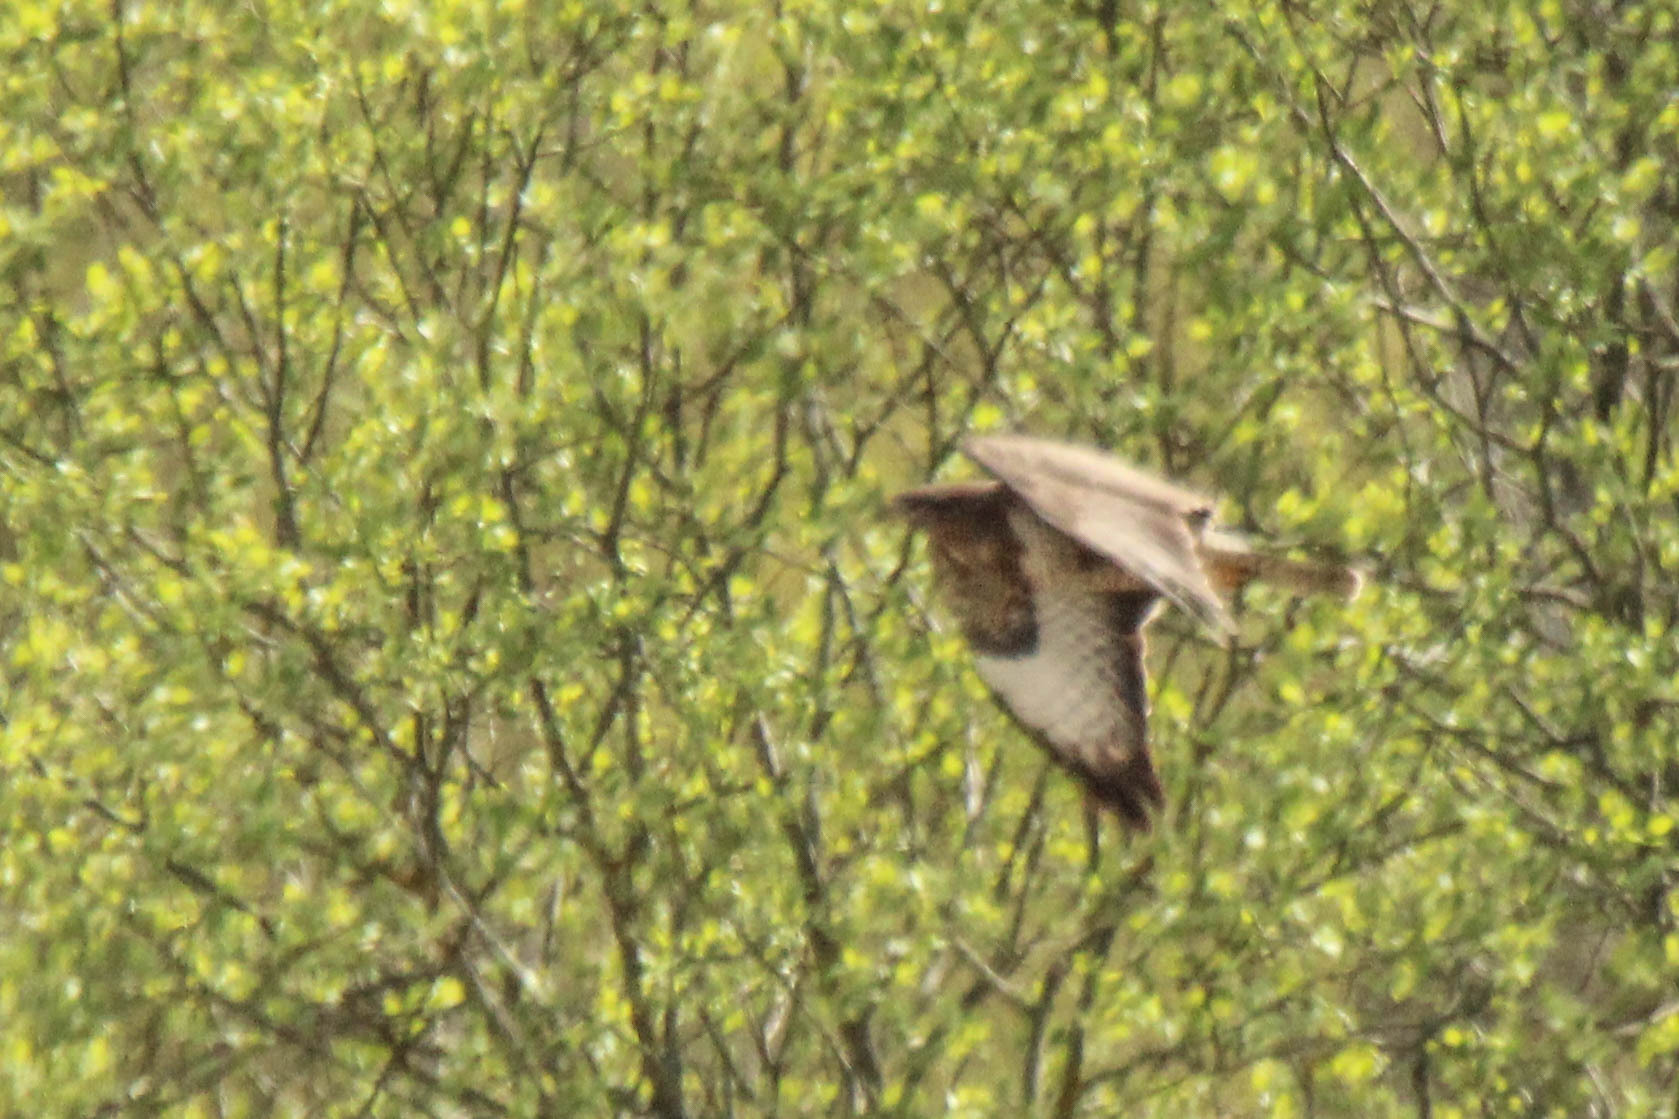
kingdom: Animalia
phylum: Chordata
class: Aves
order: Accipitriformes
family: Accipitridae
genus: Buteo
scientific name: Buteo buteo
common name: Common buzzard
